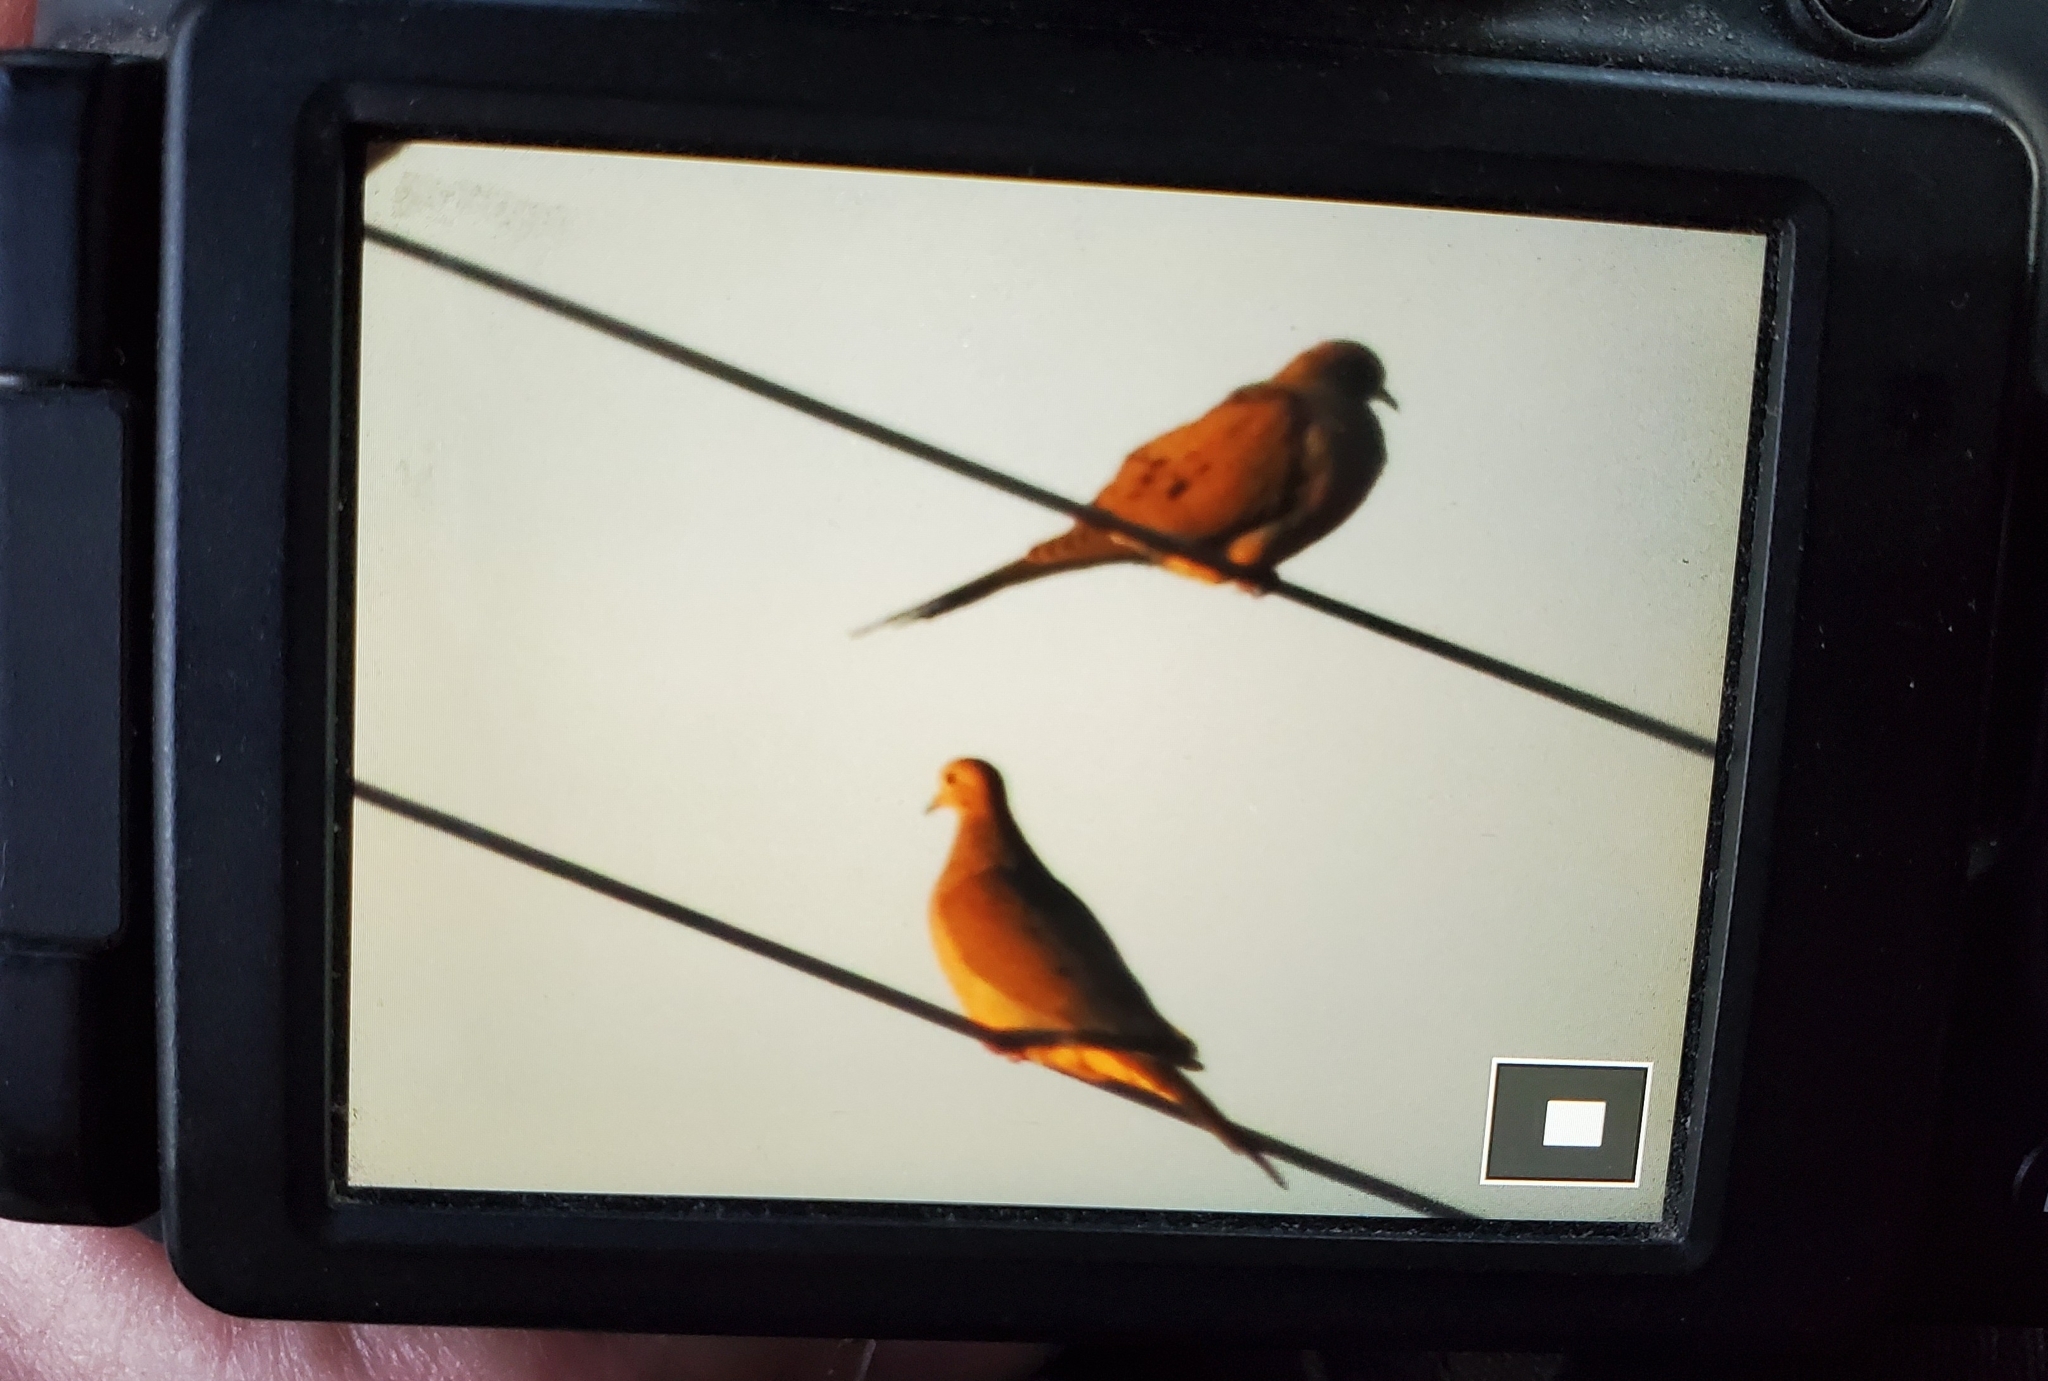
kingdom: Animalia
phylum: Chordata
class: Aves
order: Columbiformes
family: Columbidae
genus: Zenaida
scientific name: Zenaida macroura
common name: Mourning dove
